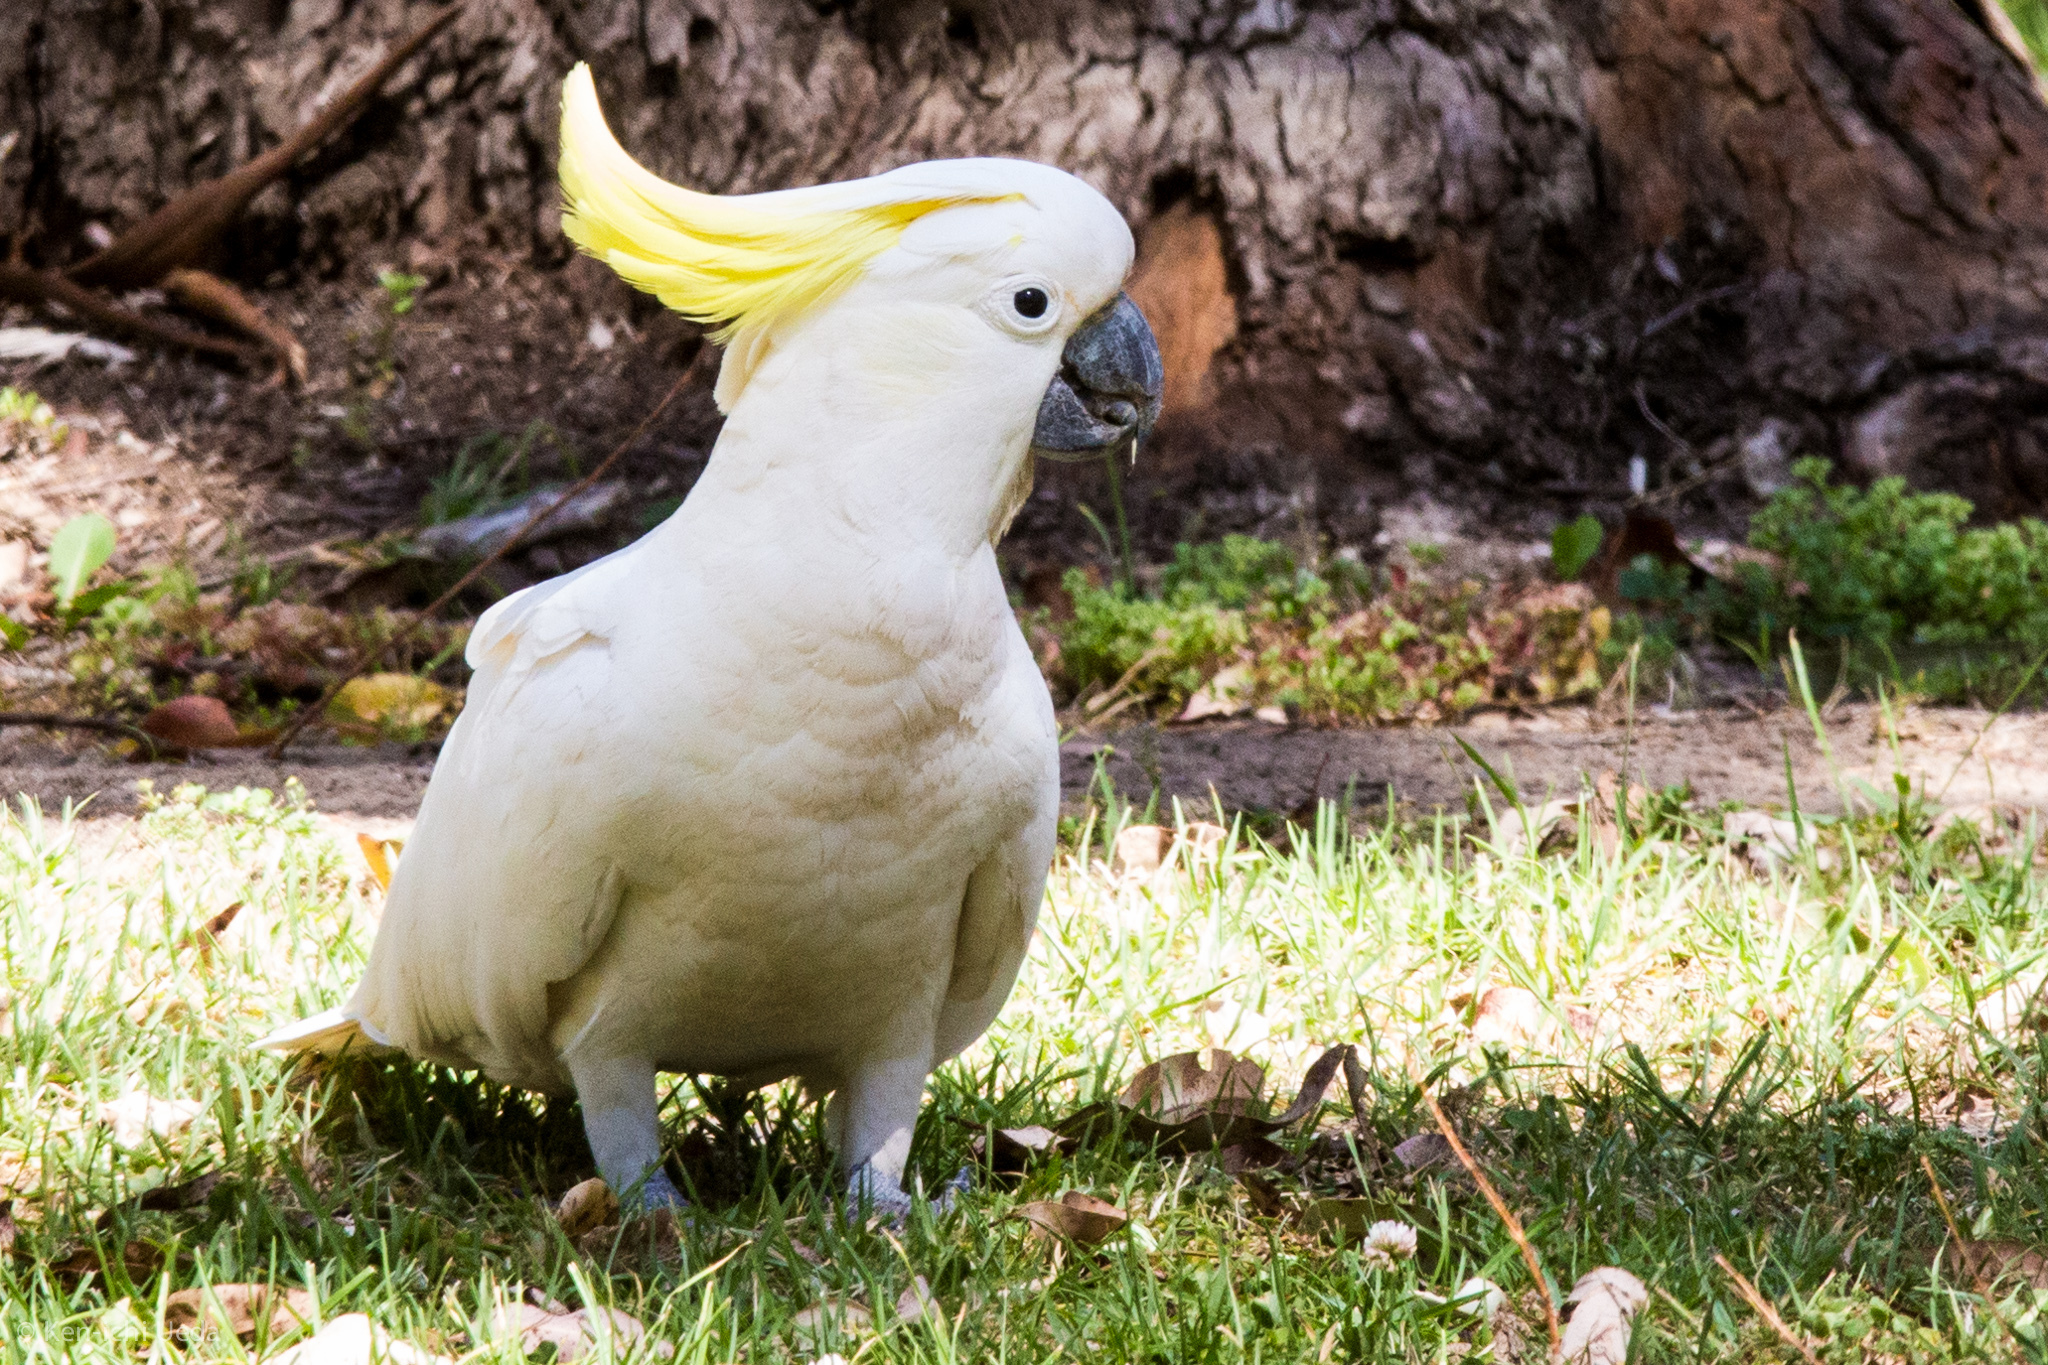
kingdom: Animalia
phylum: Chordata
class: Aves
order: Psittaciformes
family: Psittacidae
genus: Cacatua
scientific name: Cacatua galerita
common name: Sulphur-crested cockatoo
